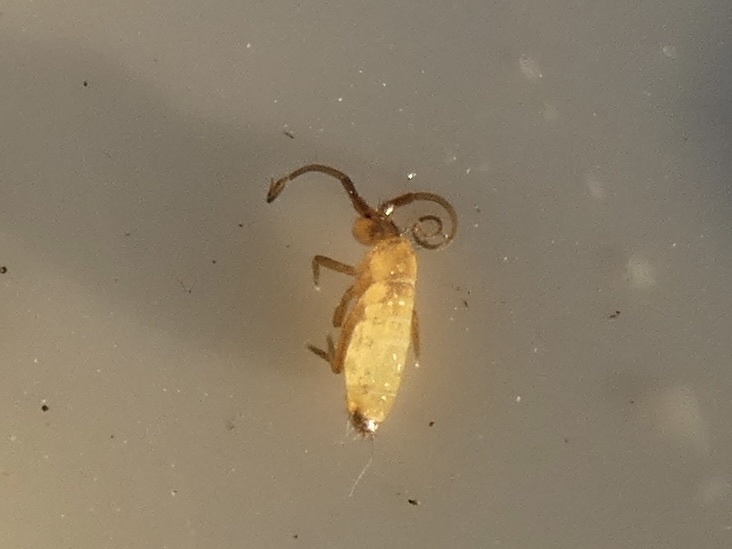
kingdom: Animalia
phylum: Arthropoda
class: Collembola
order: Entomobryomorpha
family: Tomoceridae
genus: Pogonognathellus
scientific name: Pogonognathellus longicornis
